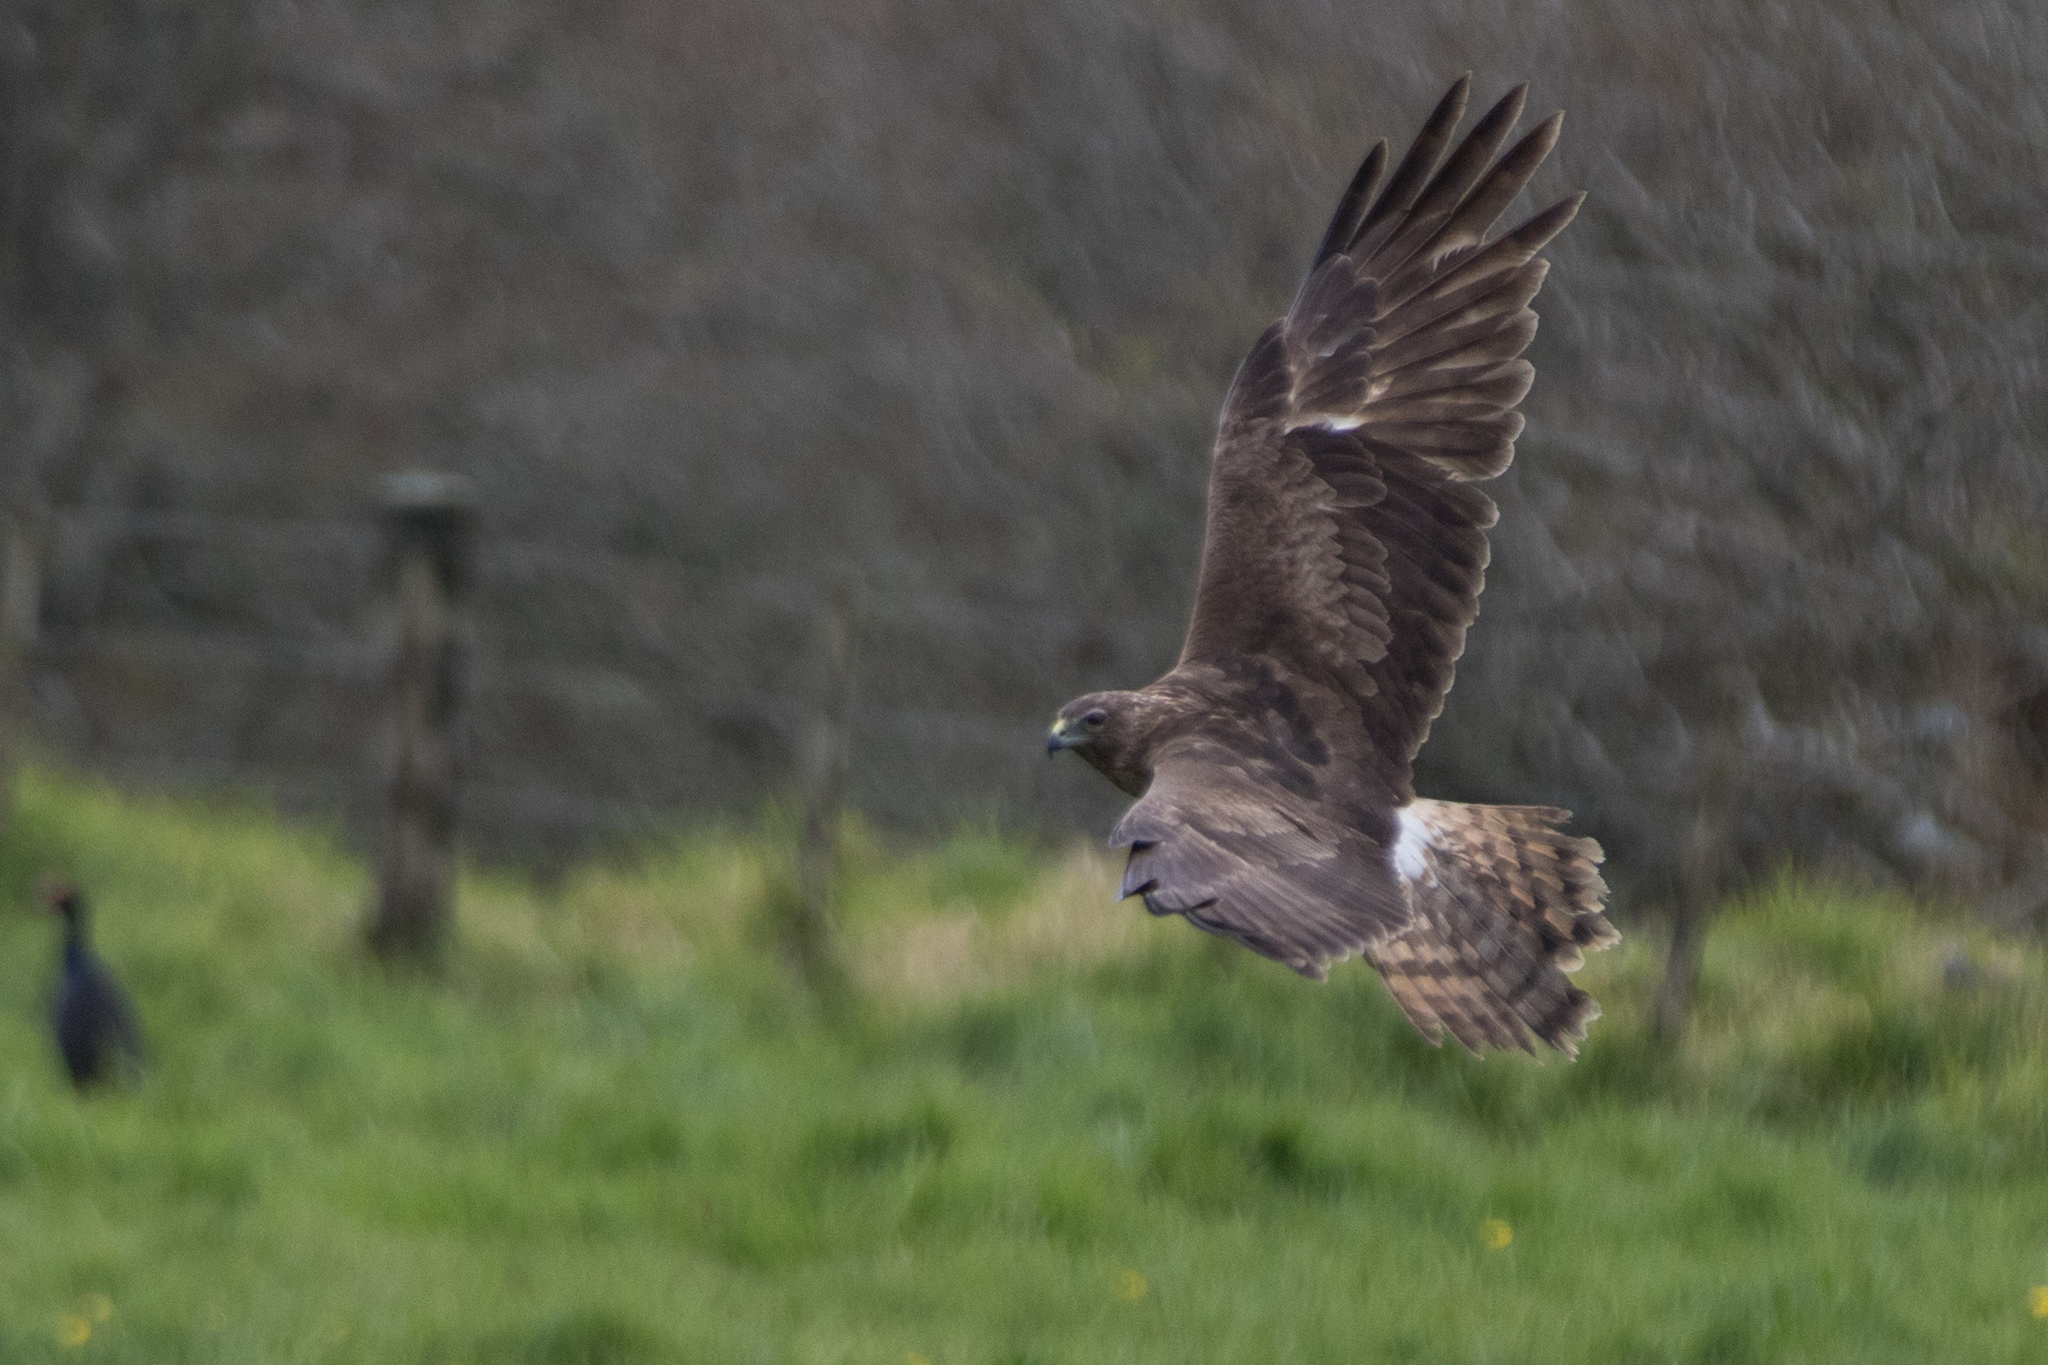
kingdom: Animalia
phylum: Chordata
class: Aves
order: Accipitriformes
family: Accipitridae
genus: Circus
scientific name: Circus approximans
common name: Swamp harrier
